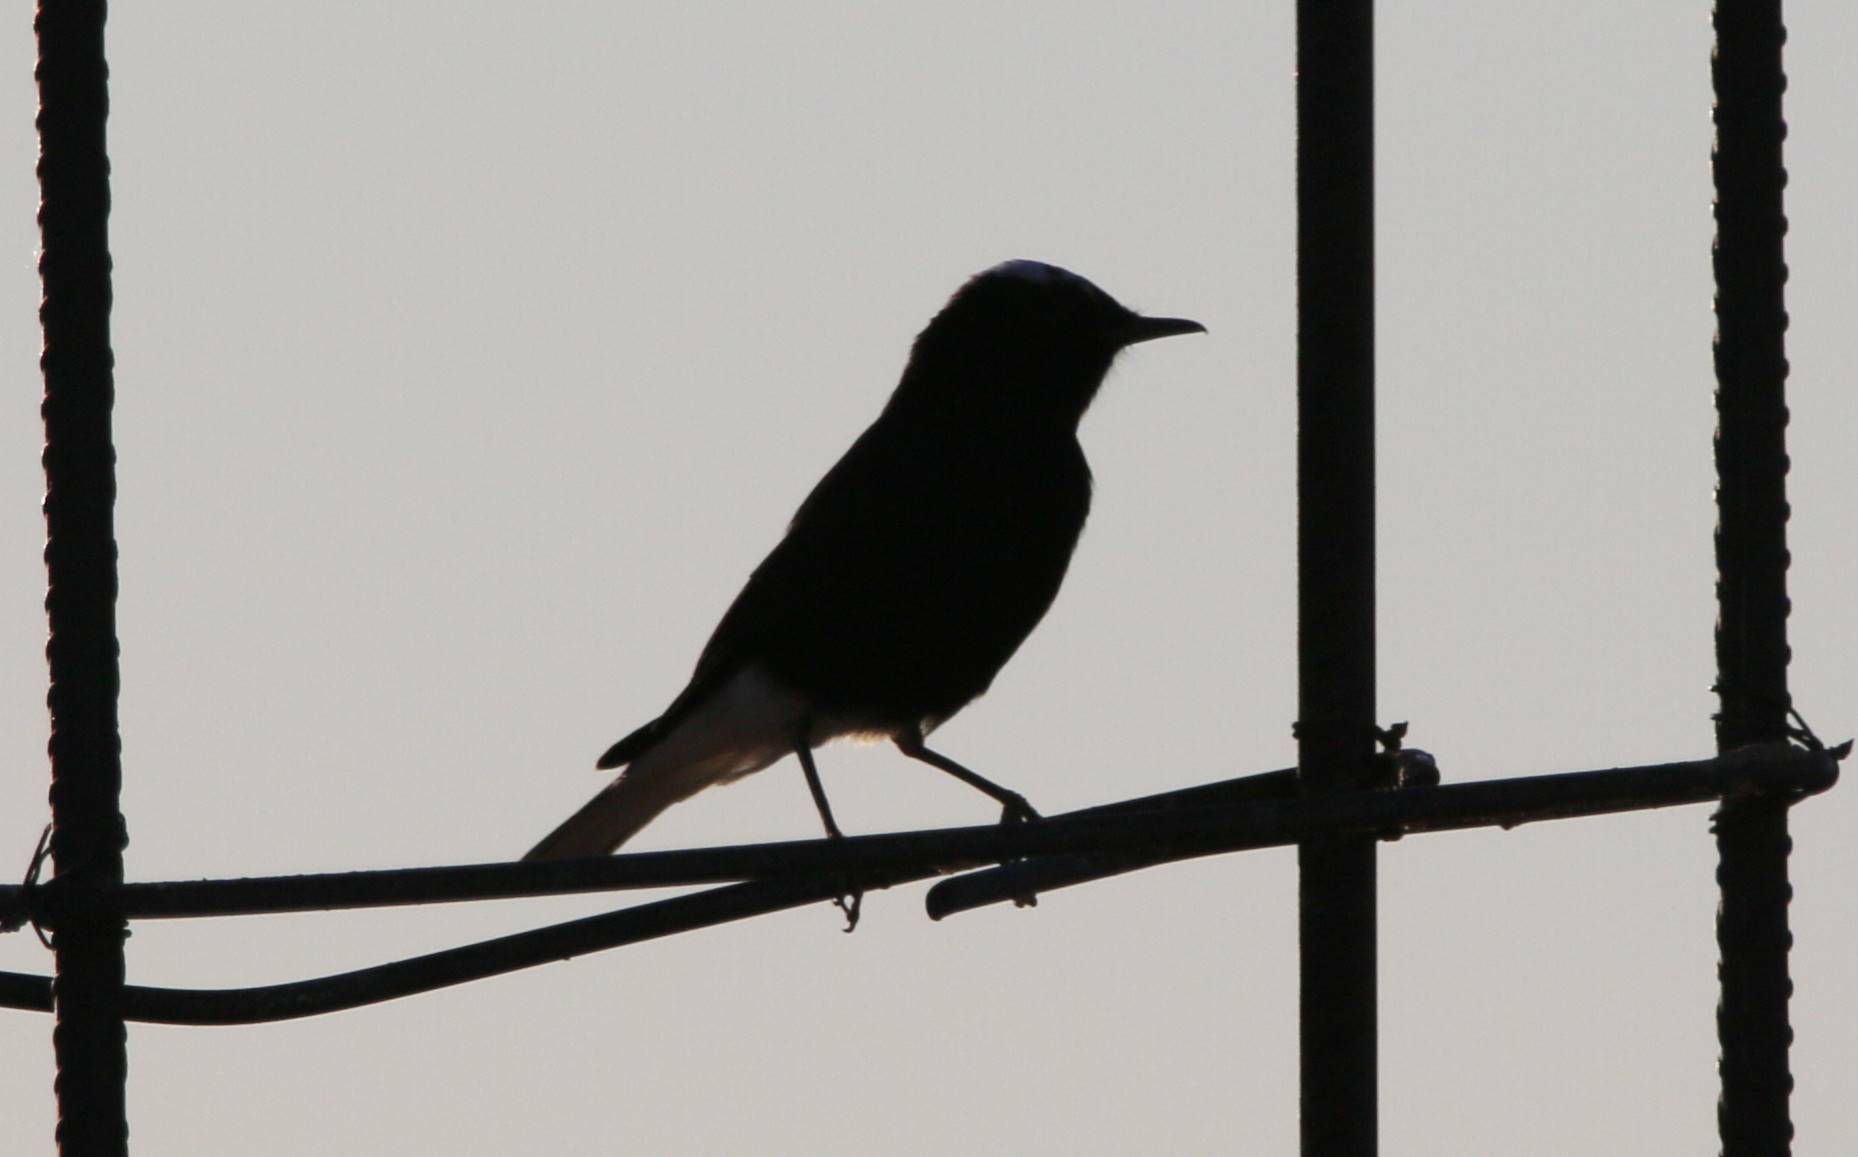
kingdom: Animalia
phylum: Chordata
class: Aves
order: Passeriformes
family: Muscicapidae
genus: Oenanthe
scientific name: Oenanthe leucopyga
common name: White-crowned wheatear
